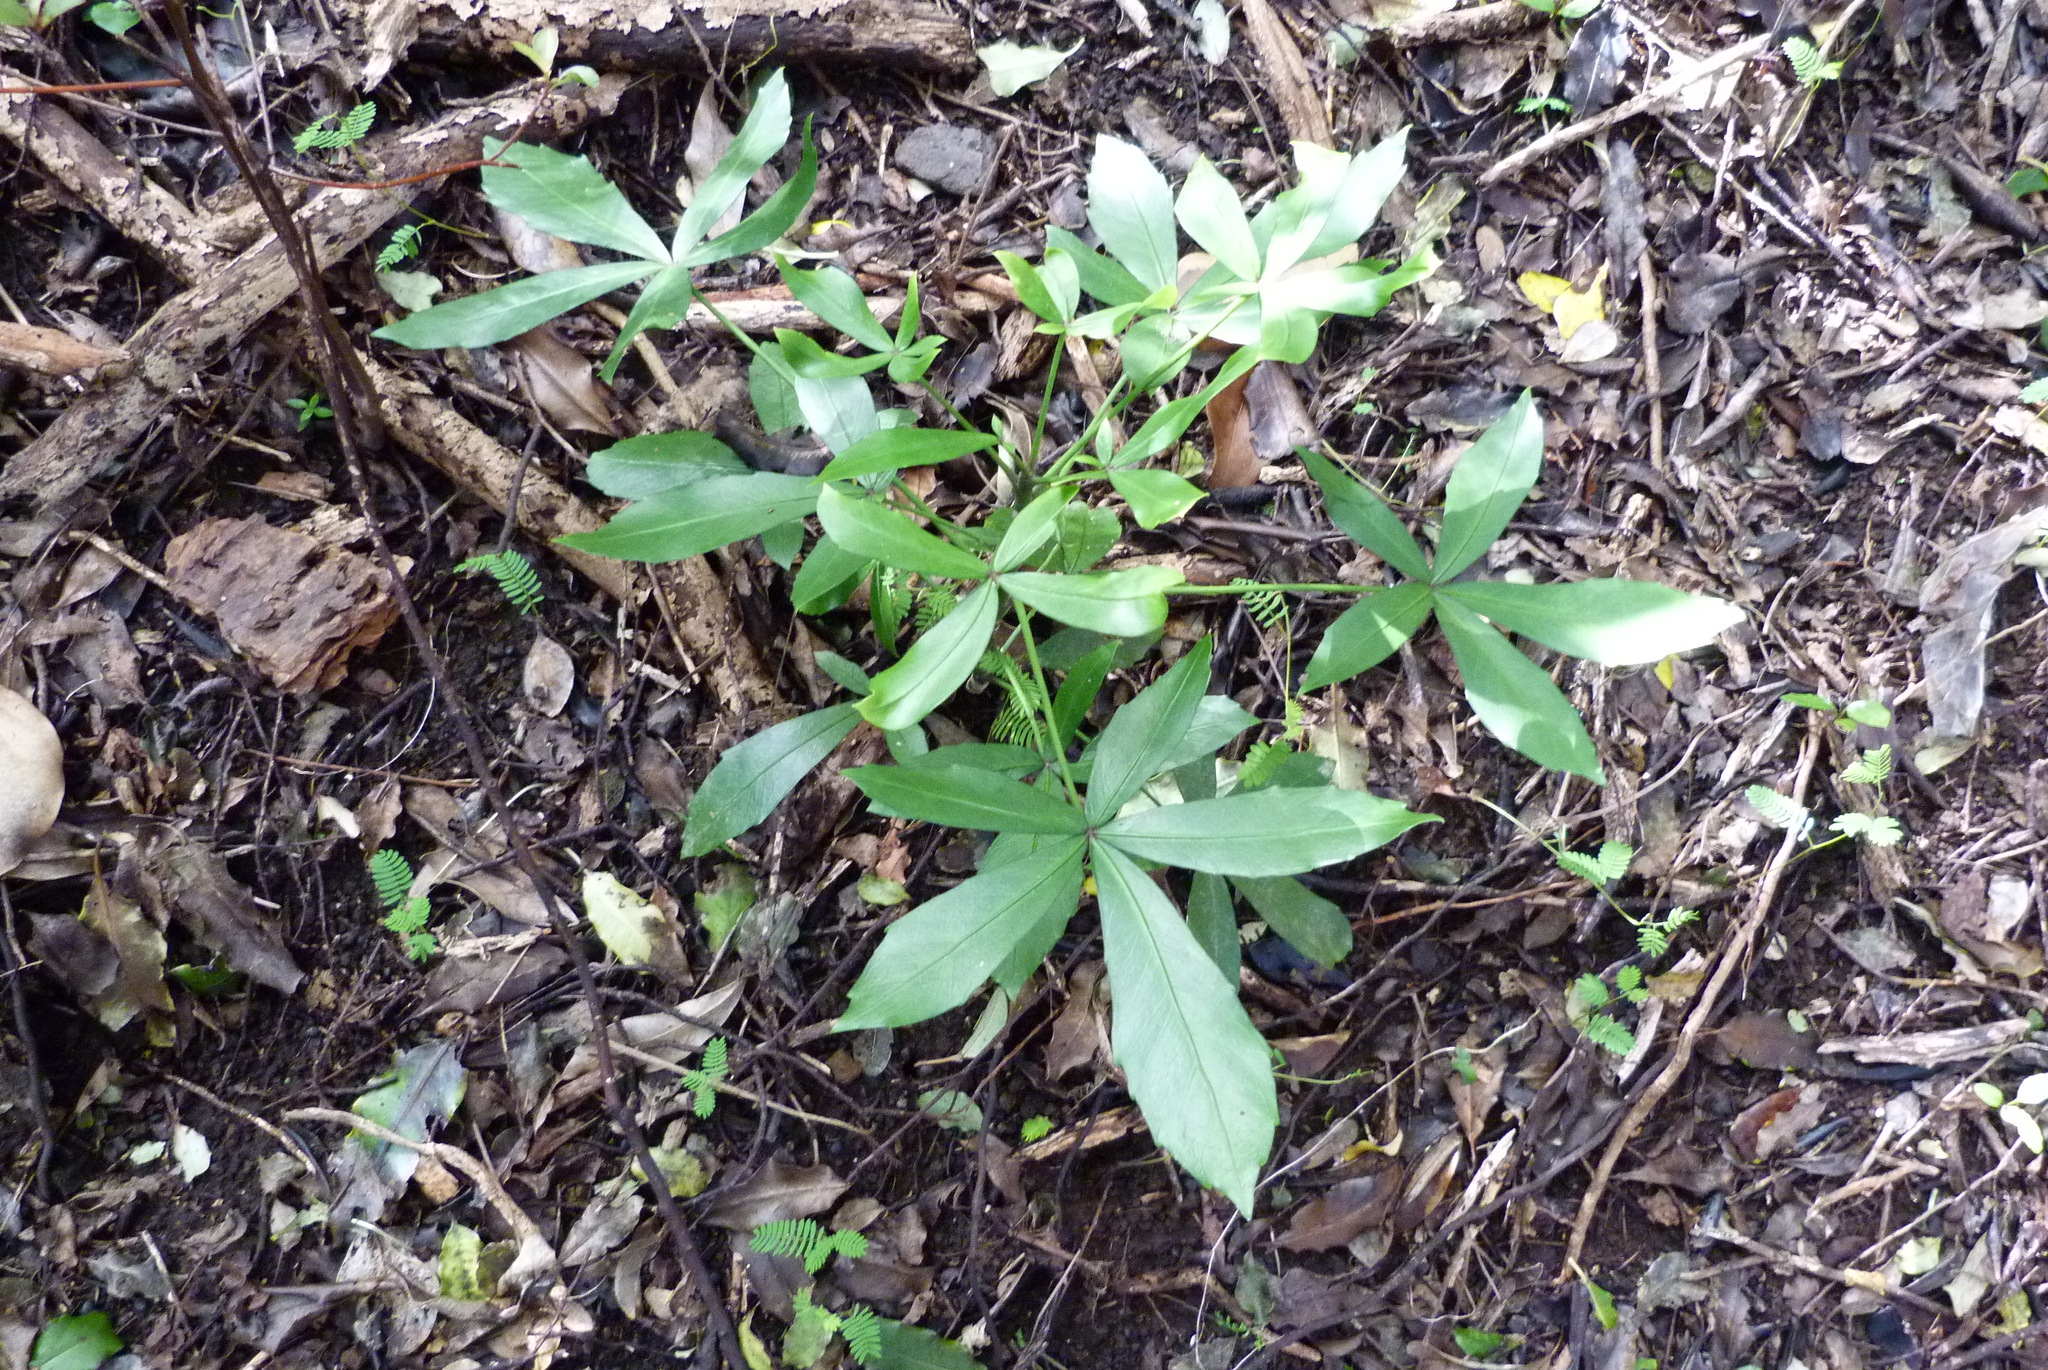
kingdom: Plantae
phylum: Tracheophyta
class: Magnoliopsida
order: Apiales
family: Araliaceae
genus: Pseudopanax
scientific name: Pseudopanax lessonii
